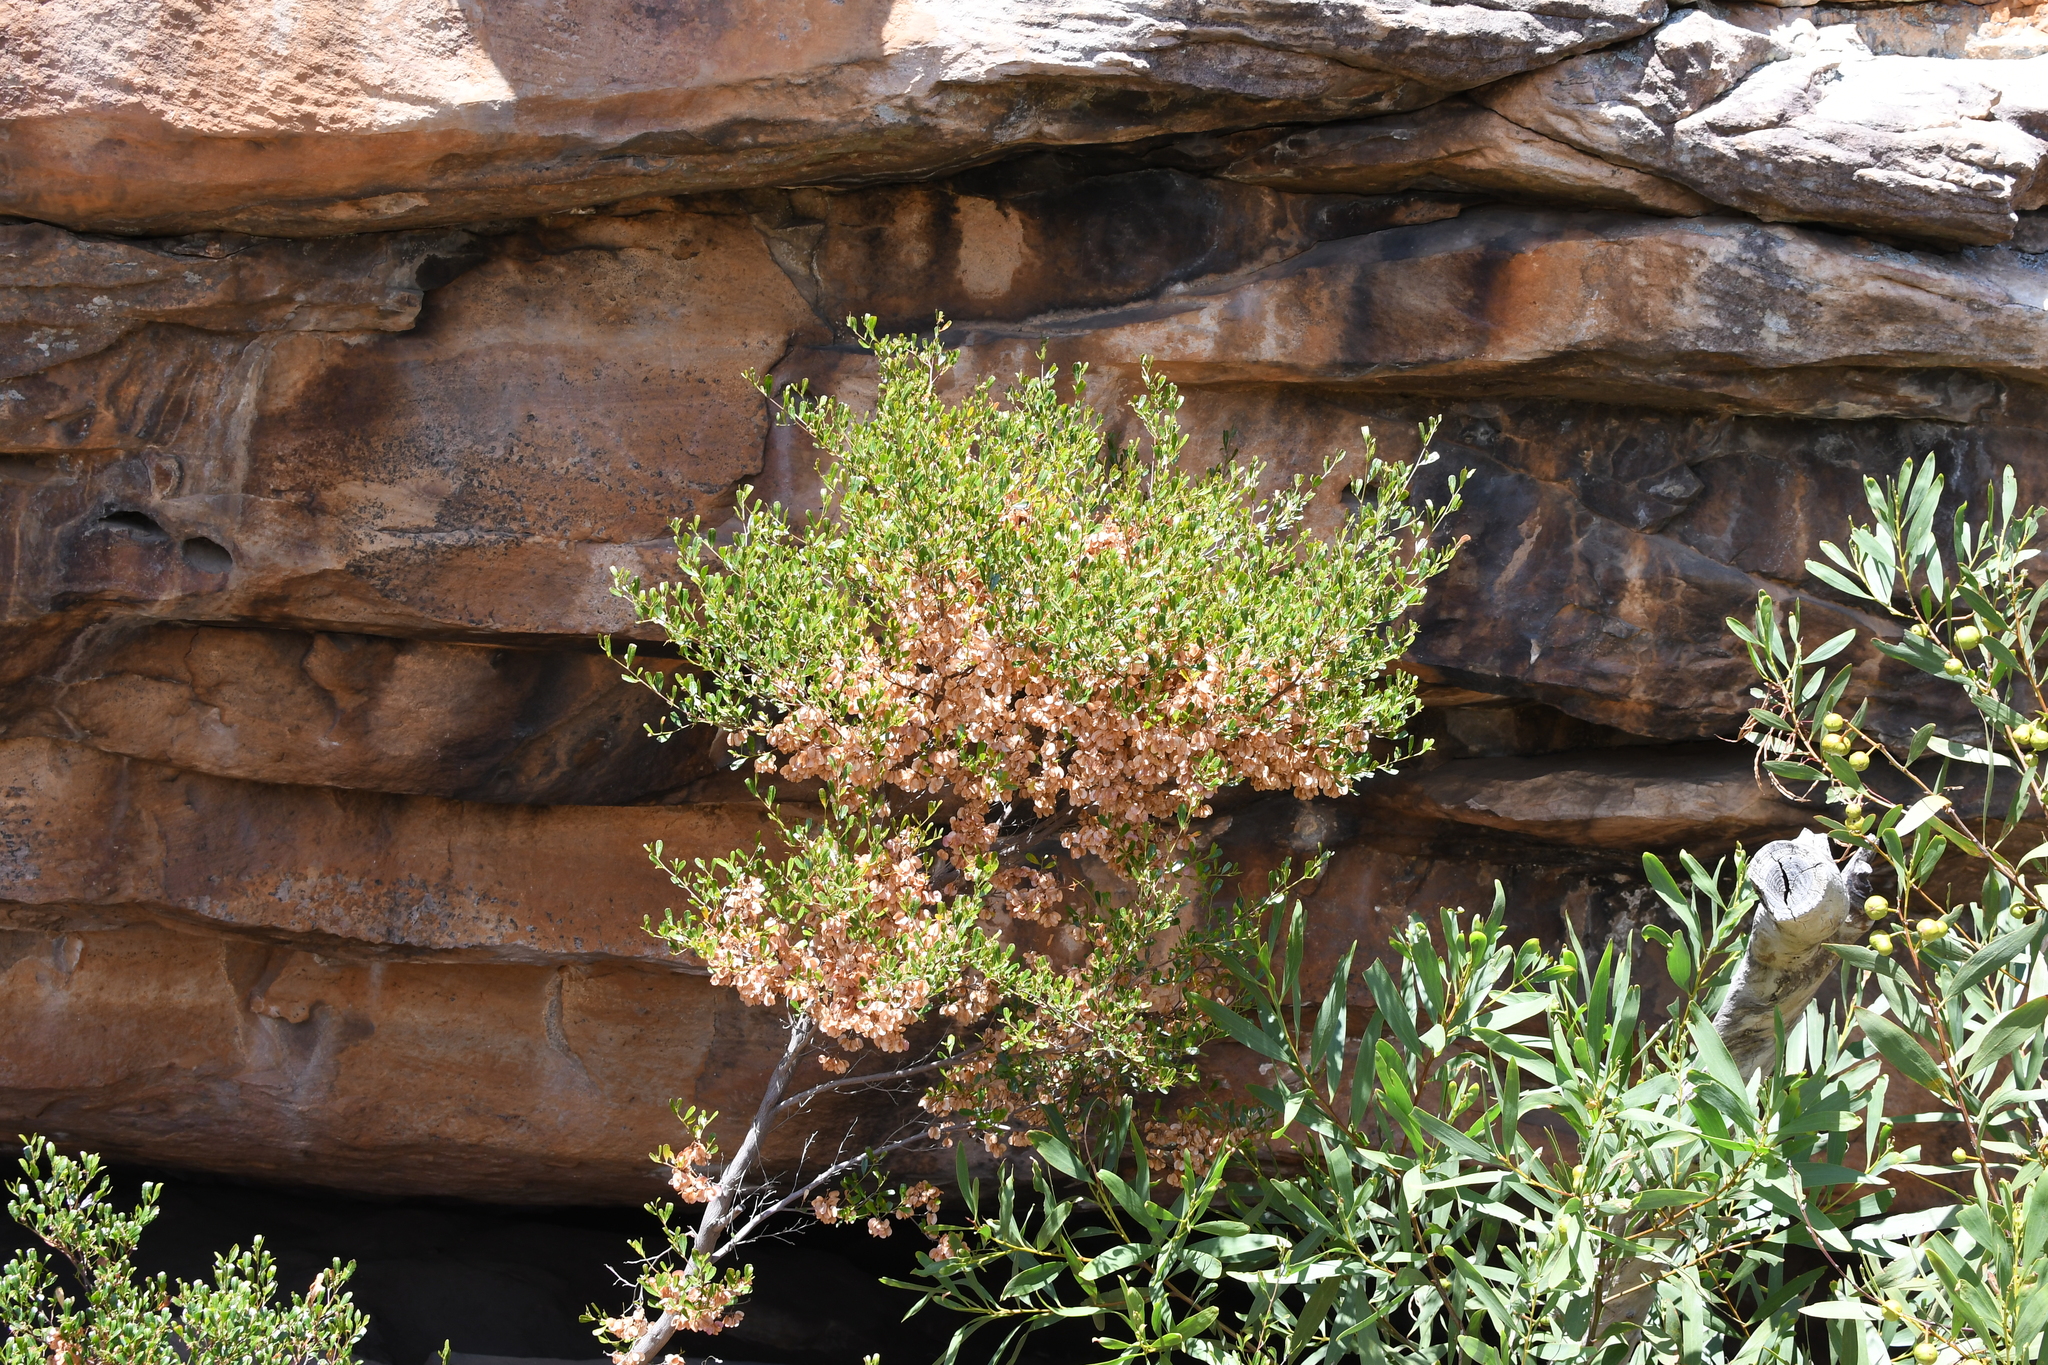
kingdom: Plantae
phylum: Tracheophyta
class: Magnoliopsida
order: Sapindales
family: Sapindaceae
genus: Dodonaea
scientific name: Dodonaea viscosa
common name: Hopbush
